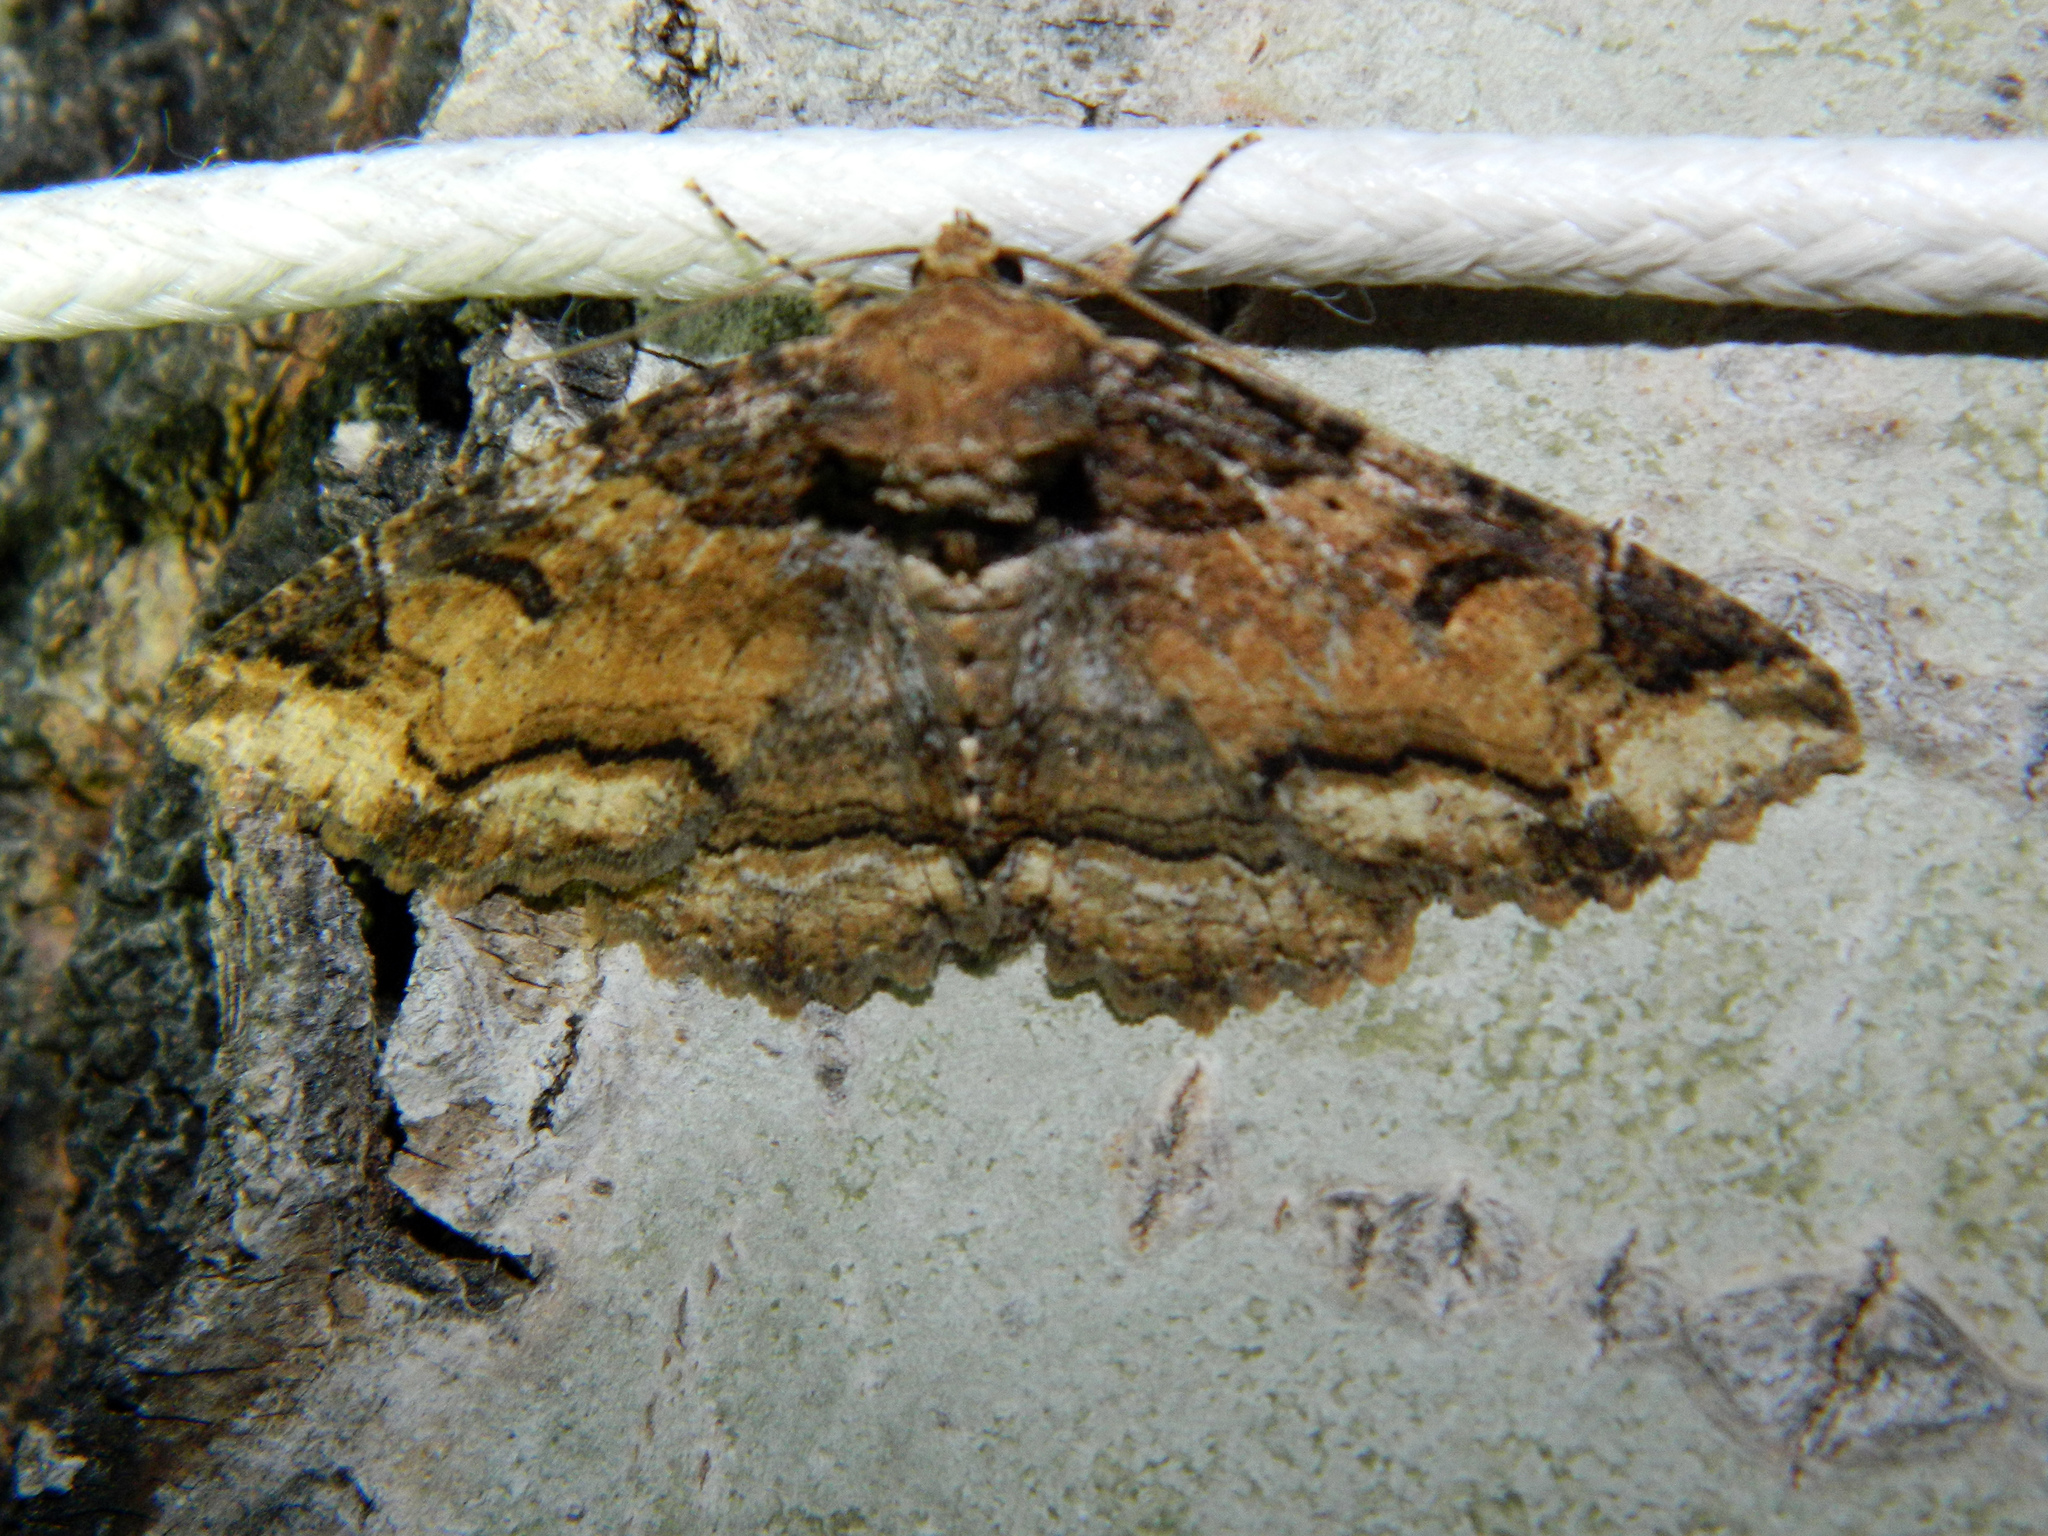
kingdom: Animalia
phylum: Arthropoda
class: Insecta
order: Lepidoptera
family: Erebidae
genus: Zale
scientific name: Zale minerea
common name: Colorful zale moth
